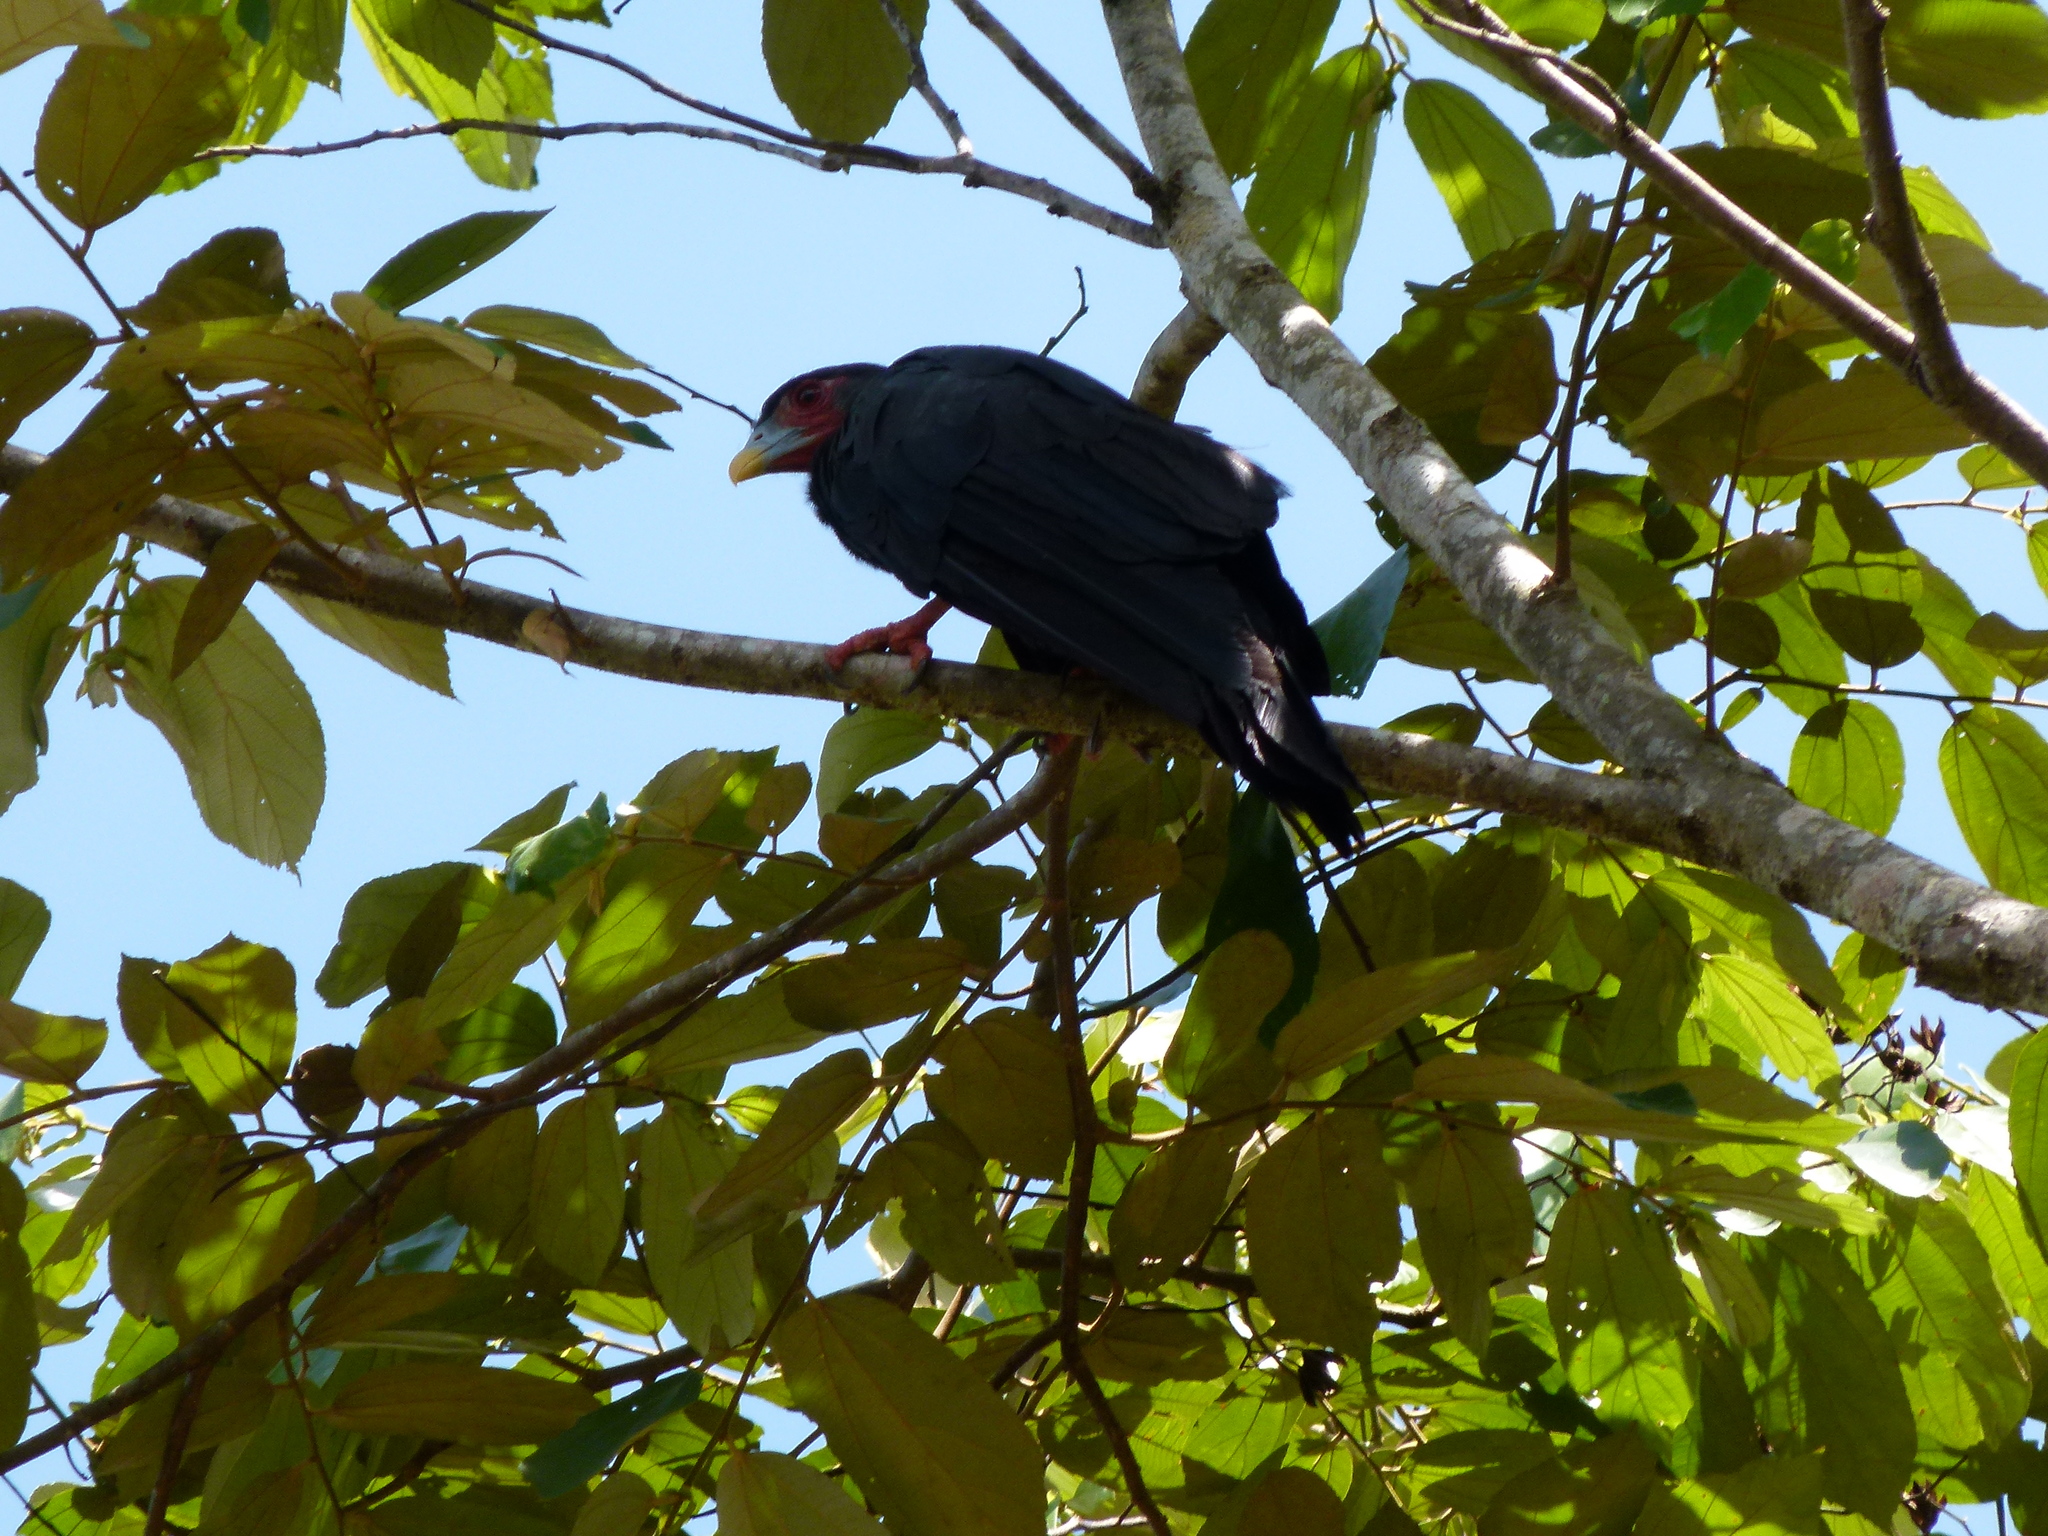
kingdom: Animalia
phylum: Chordata
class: Aves
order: Falconiformes
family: Falconidae
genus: Ibycter
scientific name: Ibycter americanus
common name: Red-throated caracara
